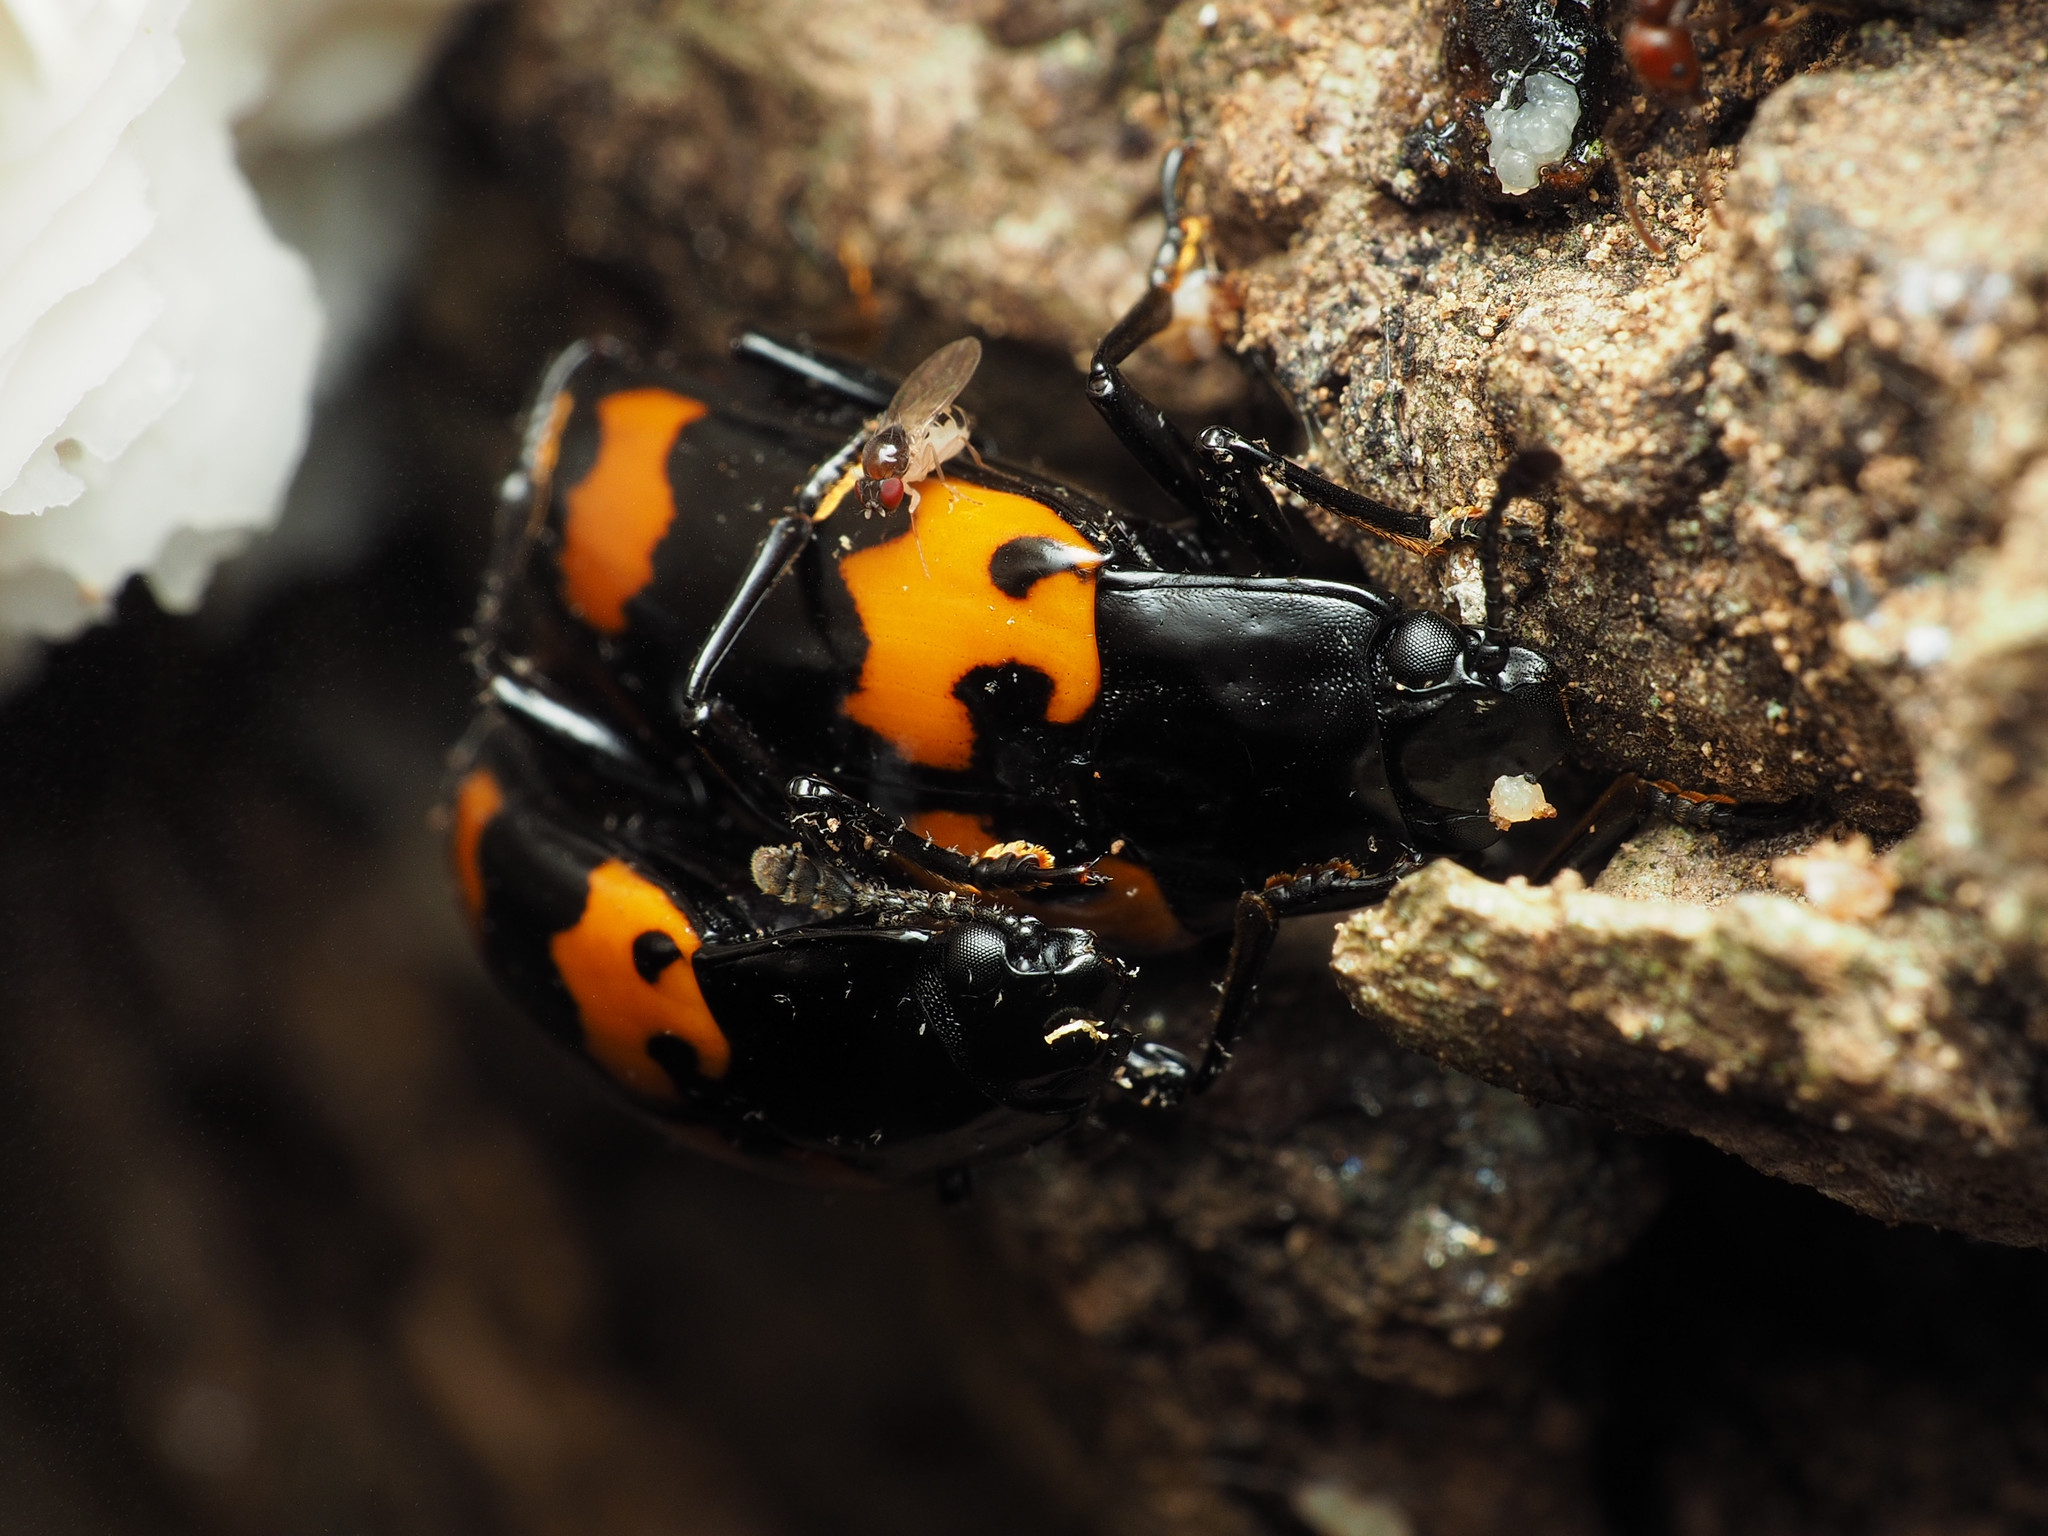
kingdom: Animalia
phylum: Arthropoda
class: Insecta
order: Coleoptera
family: Erotylidae
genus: Megalodacne
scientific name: Megalodacne heros
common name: Pleasing fungus beetle
